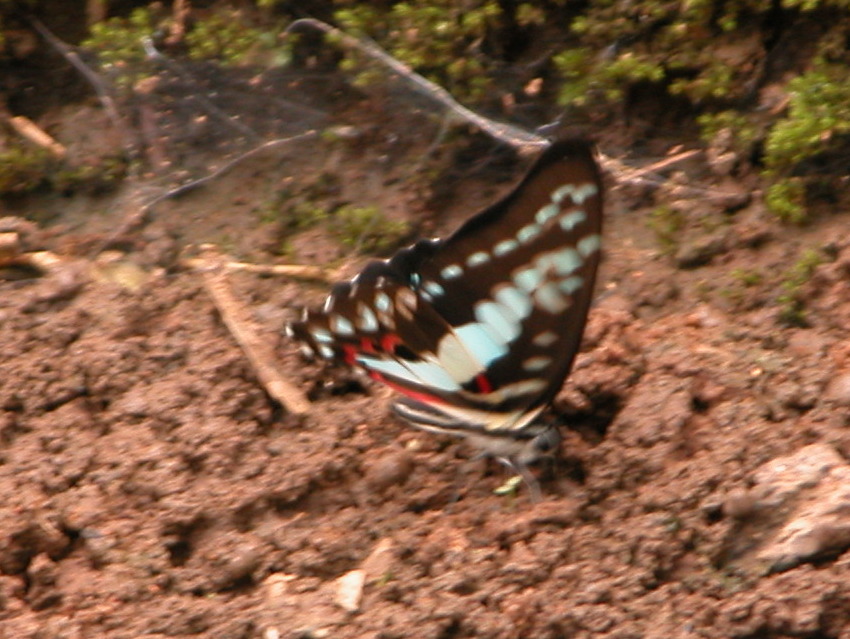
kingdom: Animalia
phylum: Arthropoda
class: Insecta
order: Lepidoptera
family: Papilionidae
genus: Graphium
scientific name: Graphium doson
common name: Common jay
